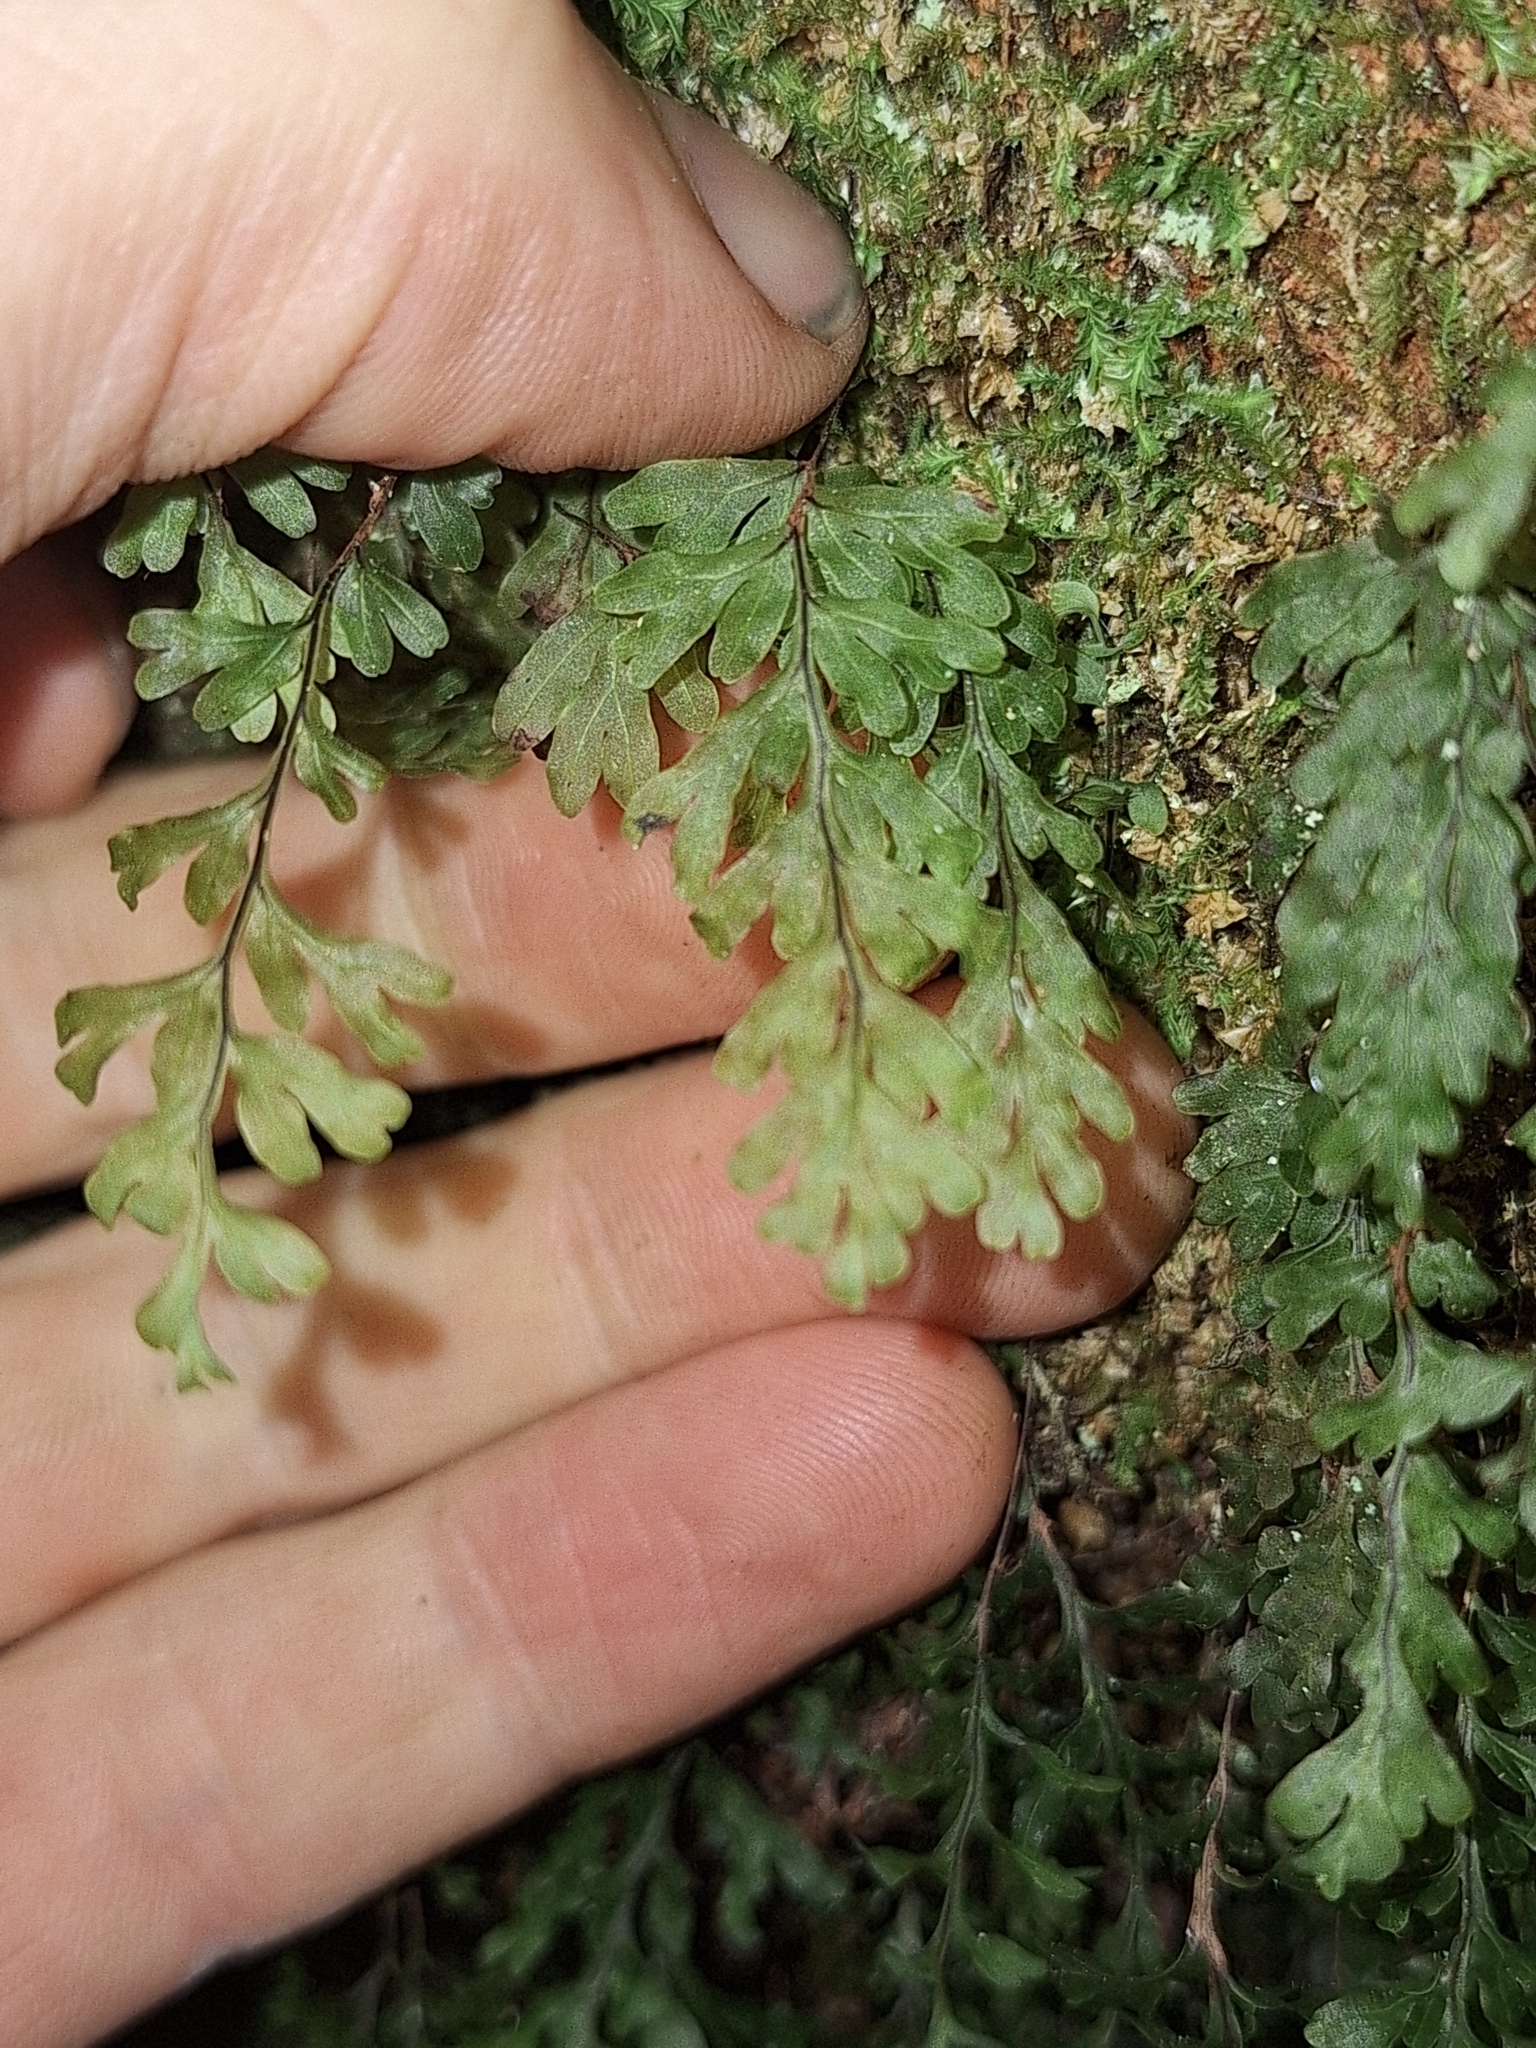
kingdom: Plantae
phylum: Tracheophyta
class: Polypodiopsida
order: Hymenophyllales
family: Hymenophyllaceae
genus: Hymenophyllum
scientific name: Hymenophyllum rarum
